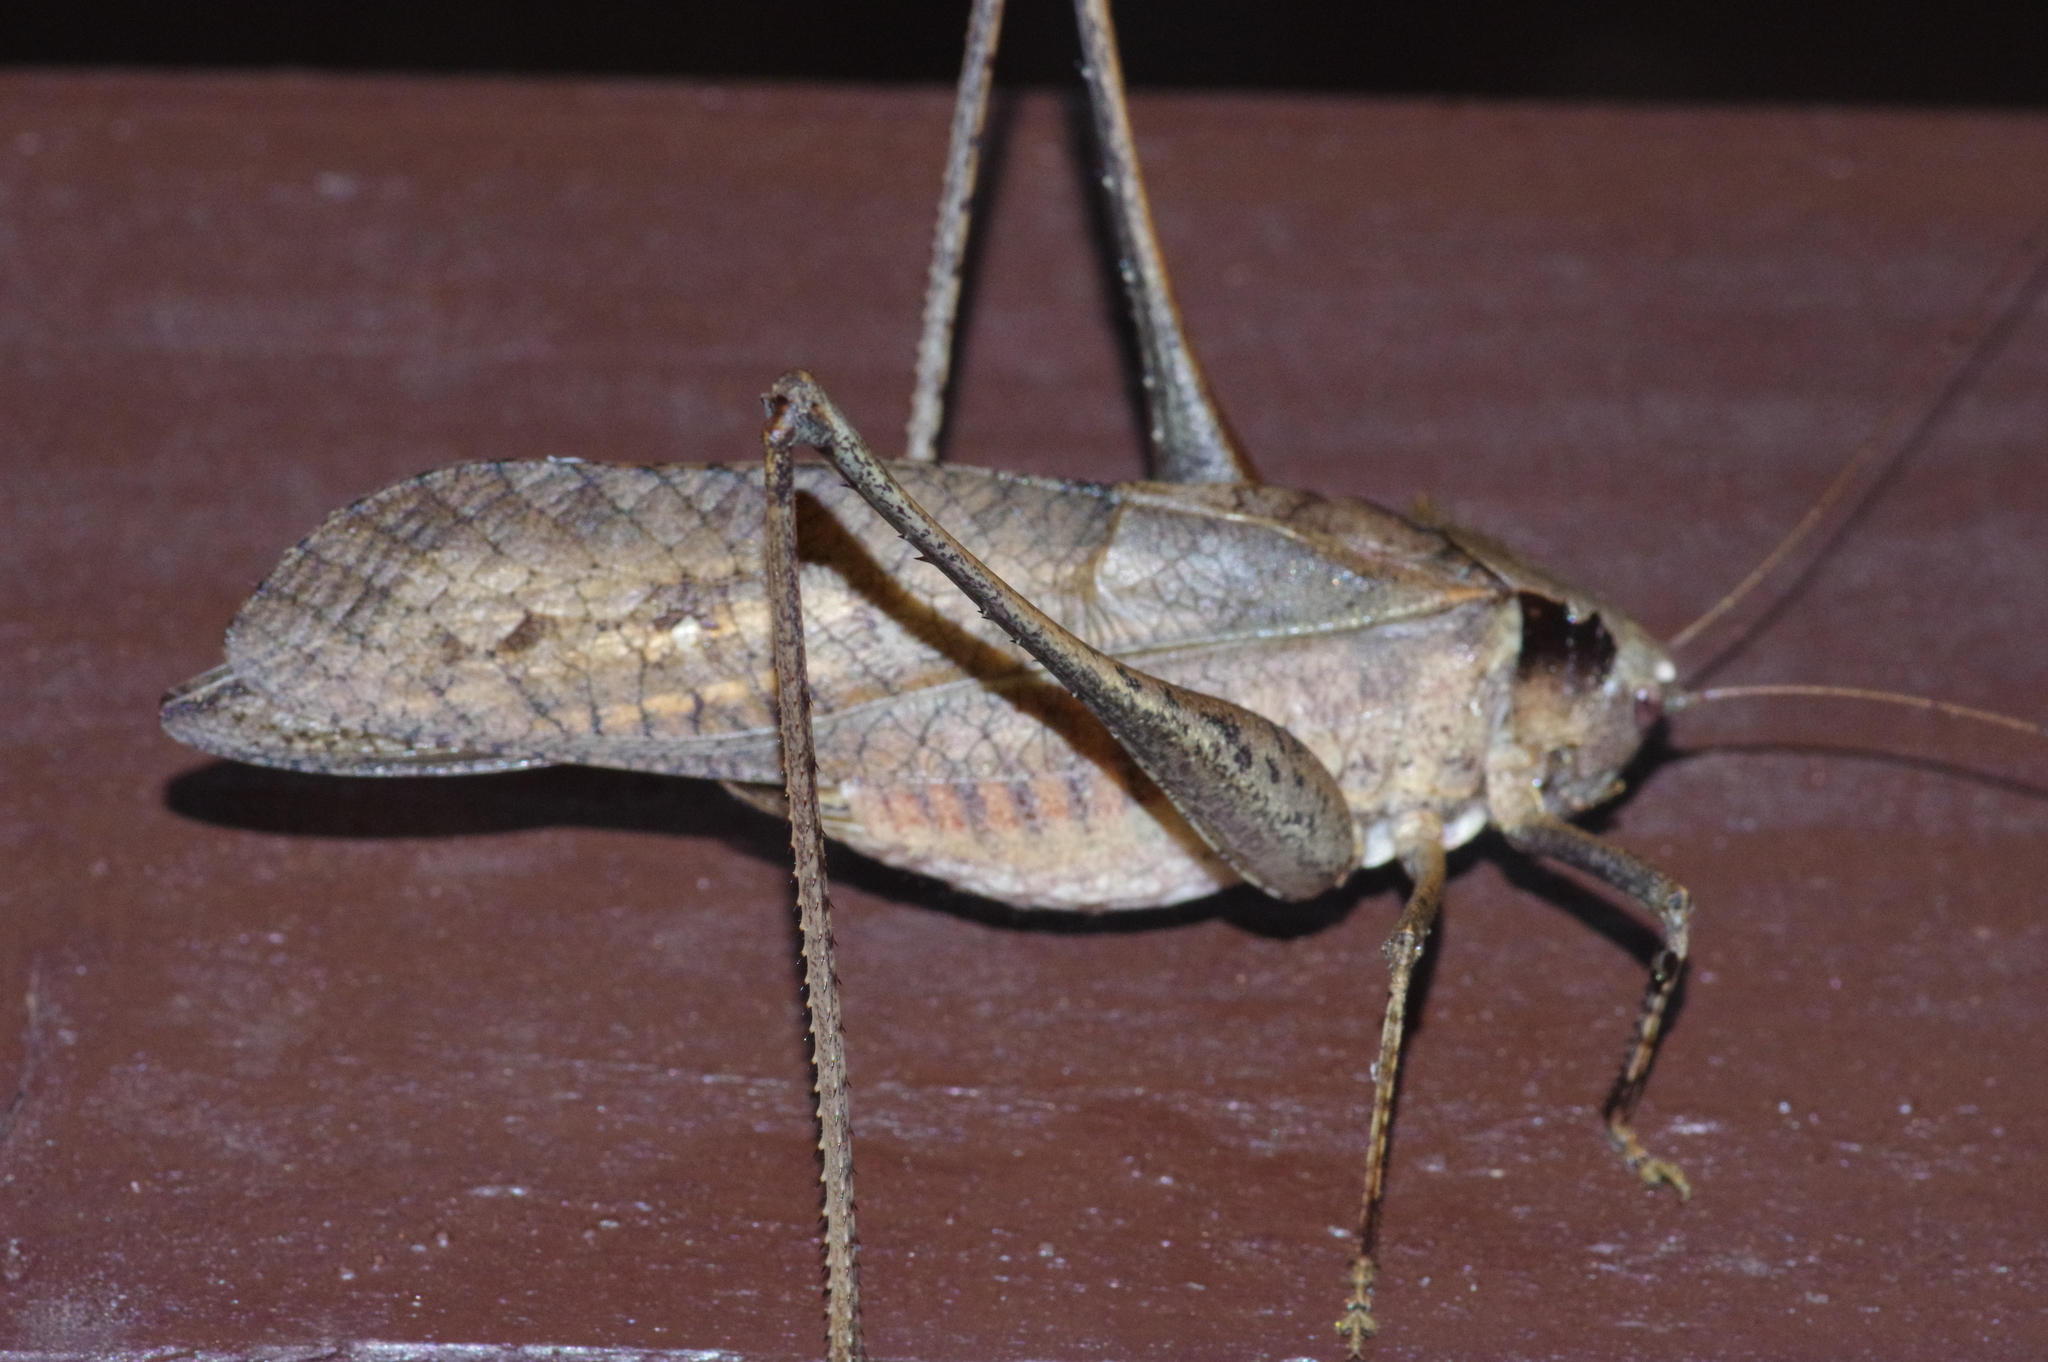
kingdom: Animalia
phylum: Arthropoda
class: Insecta
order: Orthoptera
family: Tettigoniidae
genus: Mecopoda
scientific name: Mecopoda elongata
